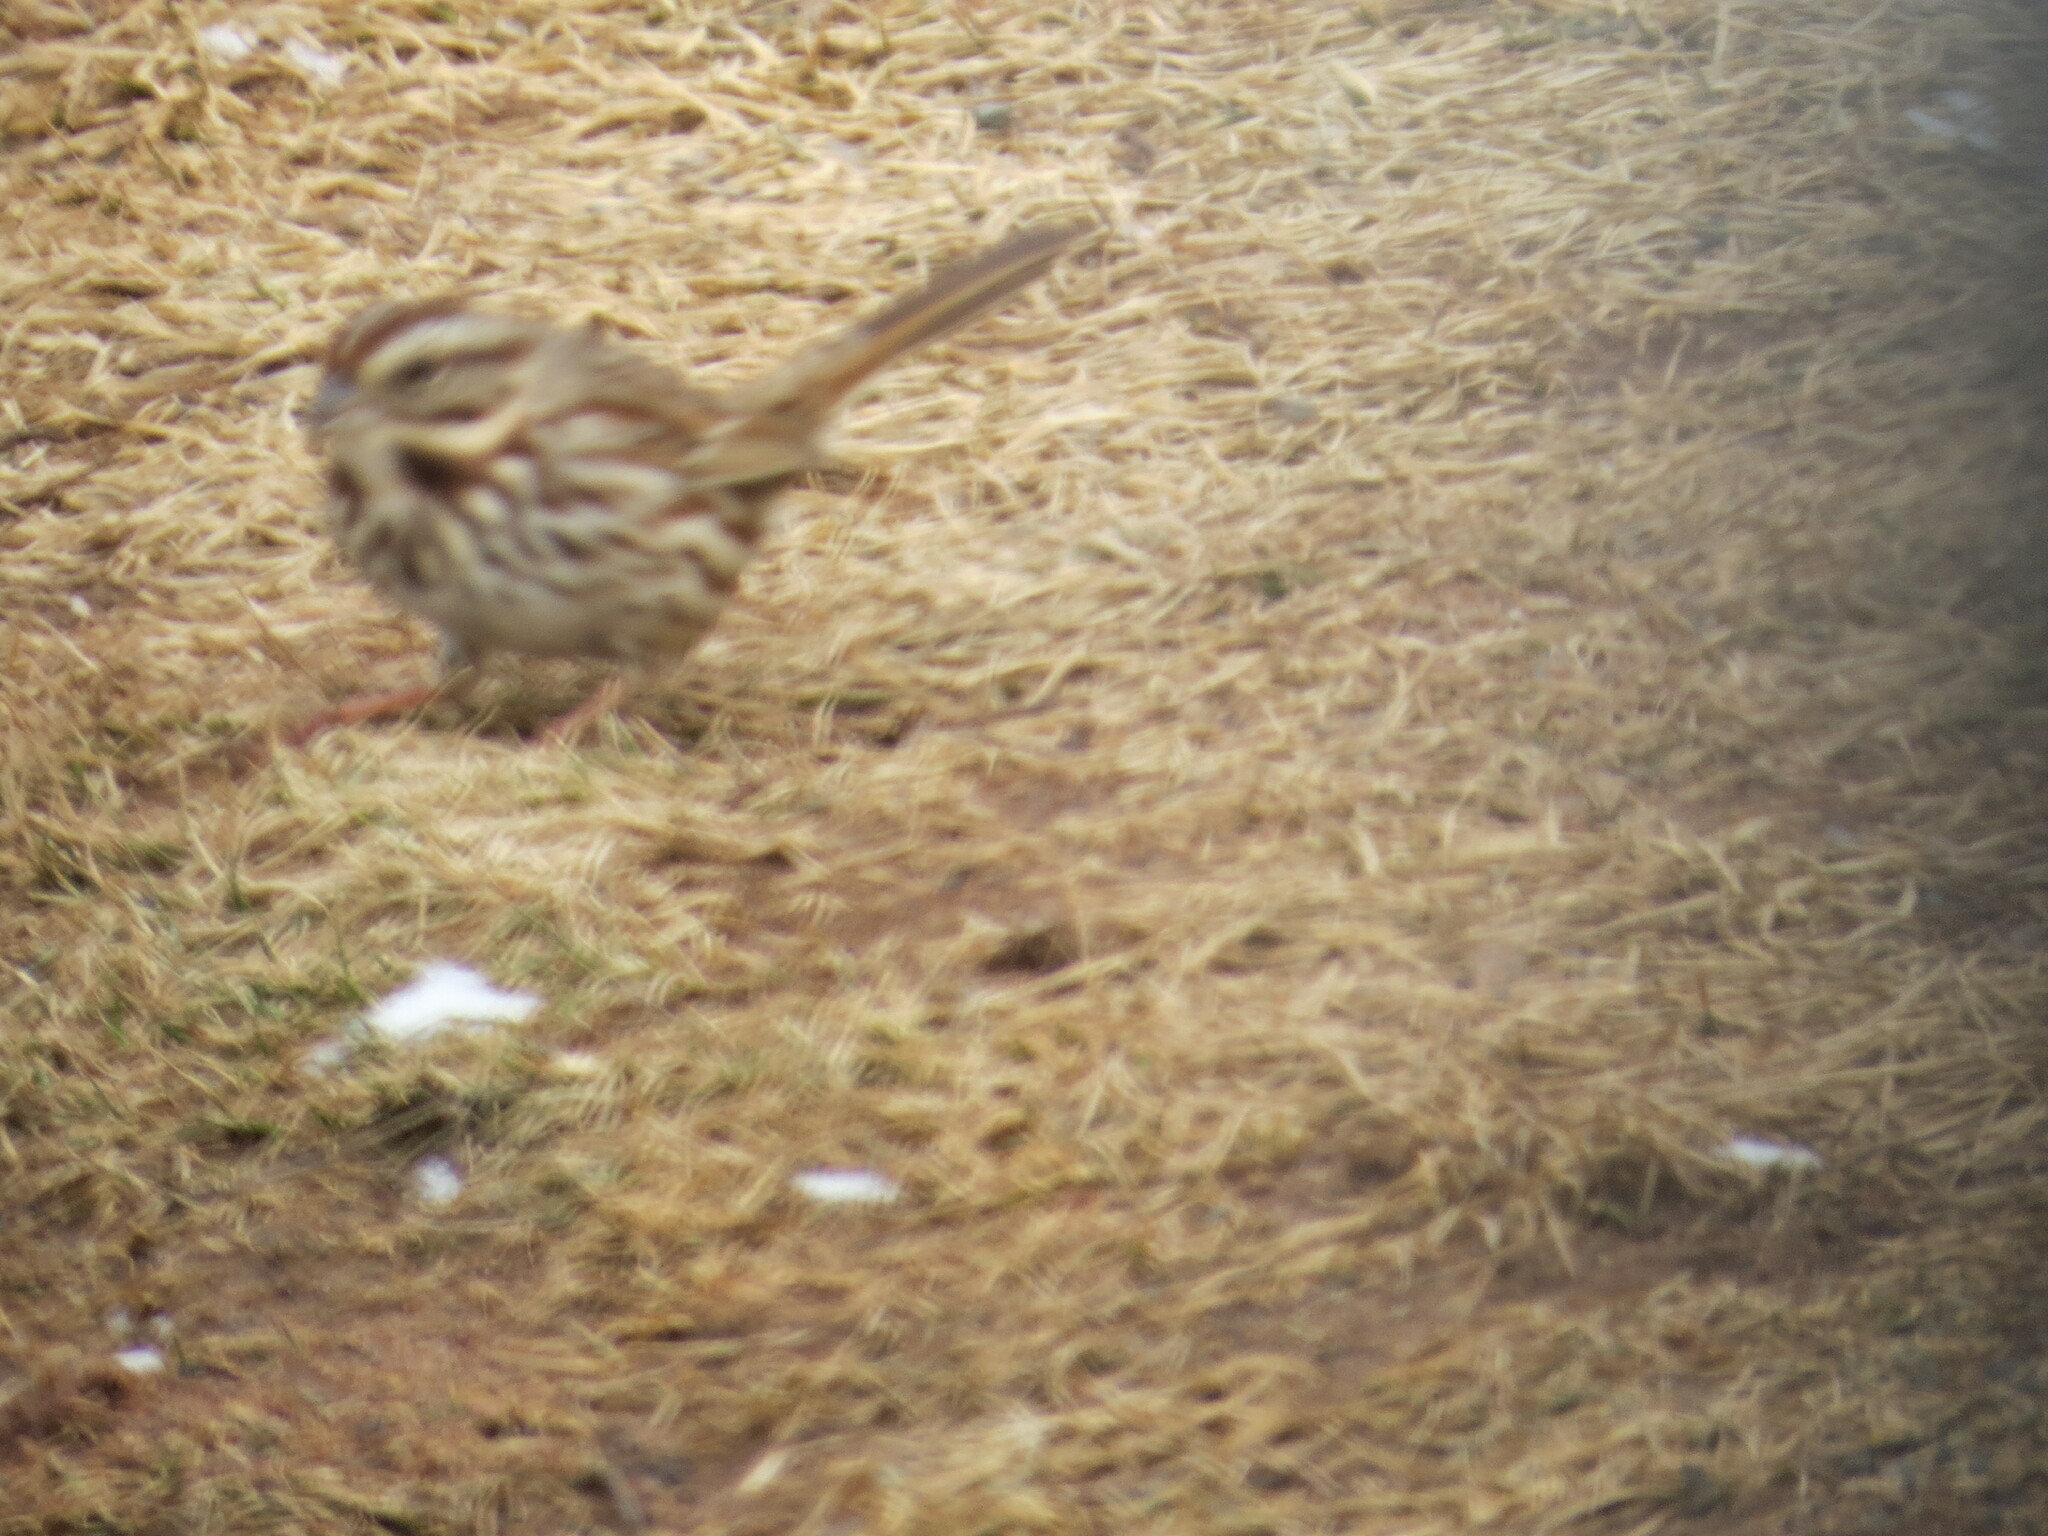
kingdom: Animalia
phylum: Chordata
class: Aves
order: Passeriformes
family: Passerellidae
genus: Melospiza
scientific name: Melospiza melodia
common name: Song sparrow
